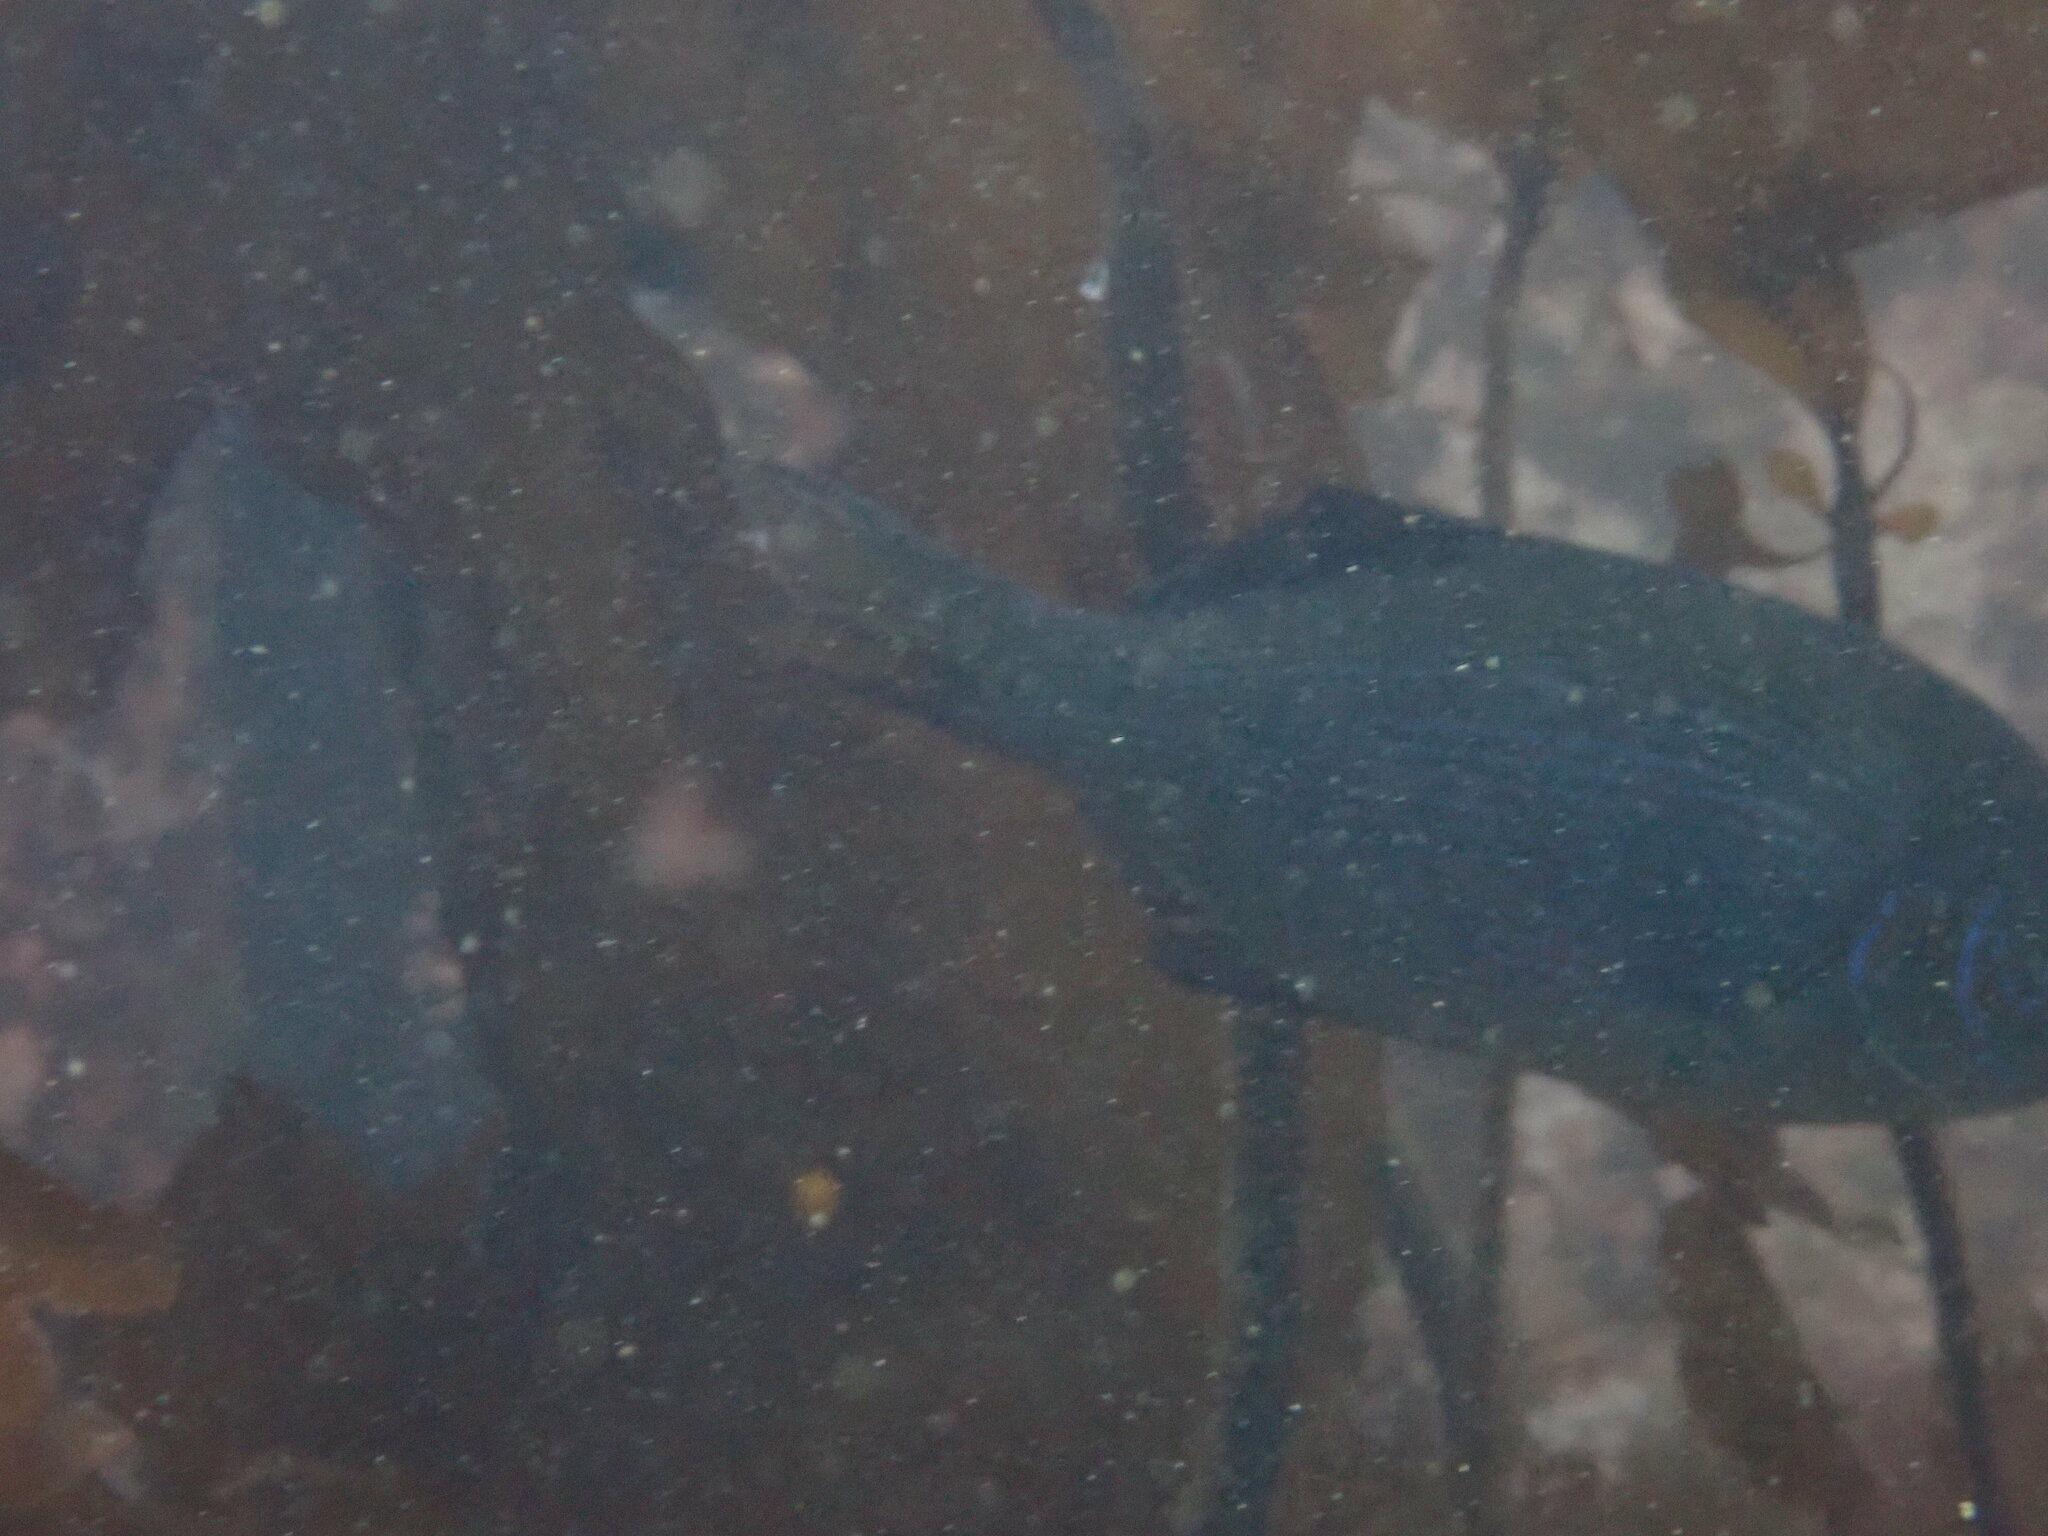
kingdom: Animalia
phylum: Chordata
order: Perciformes
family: Embiotocidae
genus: Embiotoca
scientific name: Embiotoca lateralis
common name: Striped surfperch
